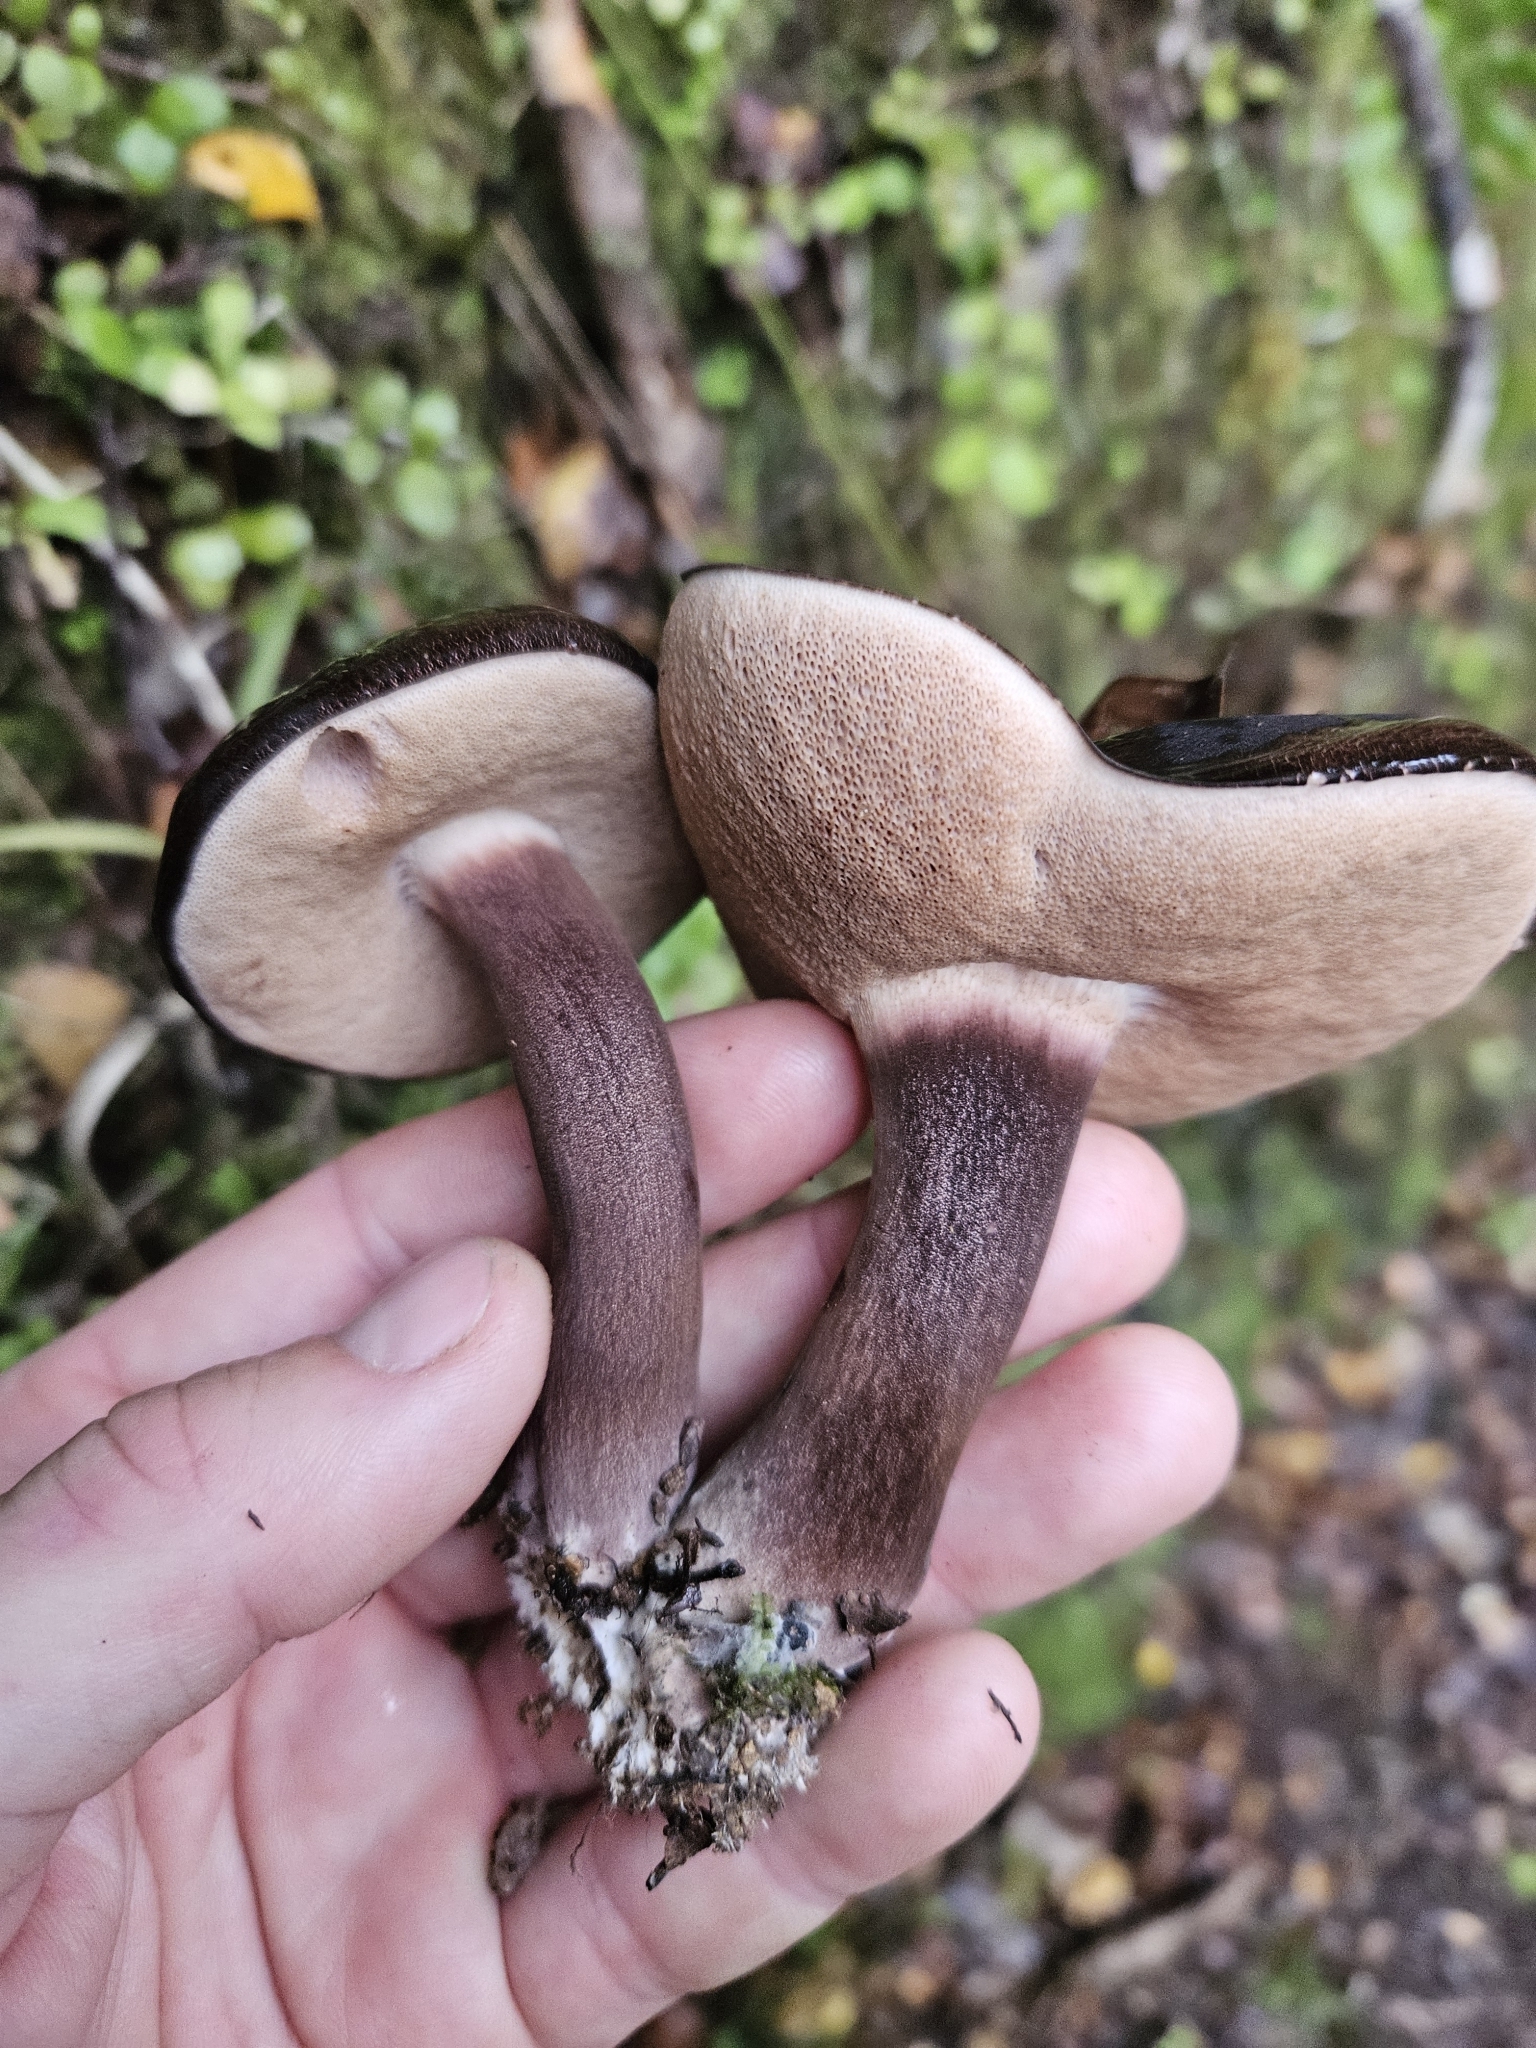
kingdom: Fungi
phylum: Basidiomycota
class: Agaricomycetes
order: Boletales
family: Boletaceae
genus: Porphyrellus
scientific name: Porphyrellus formosus
